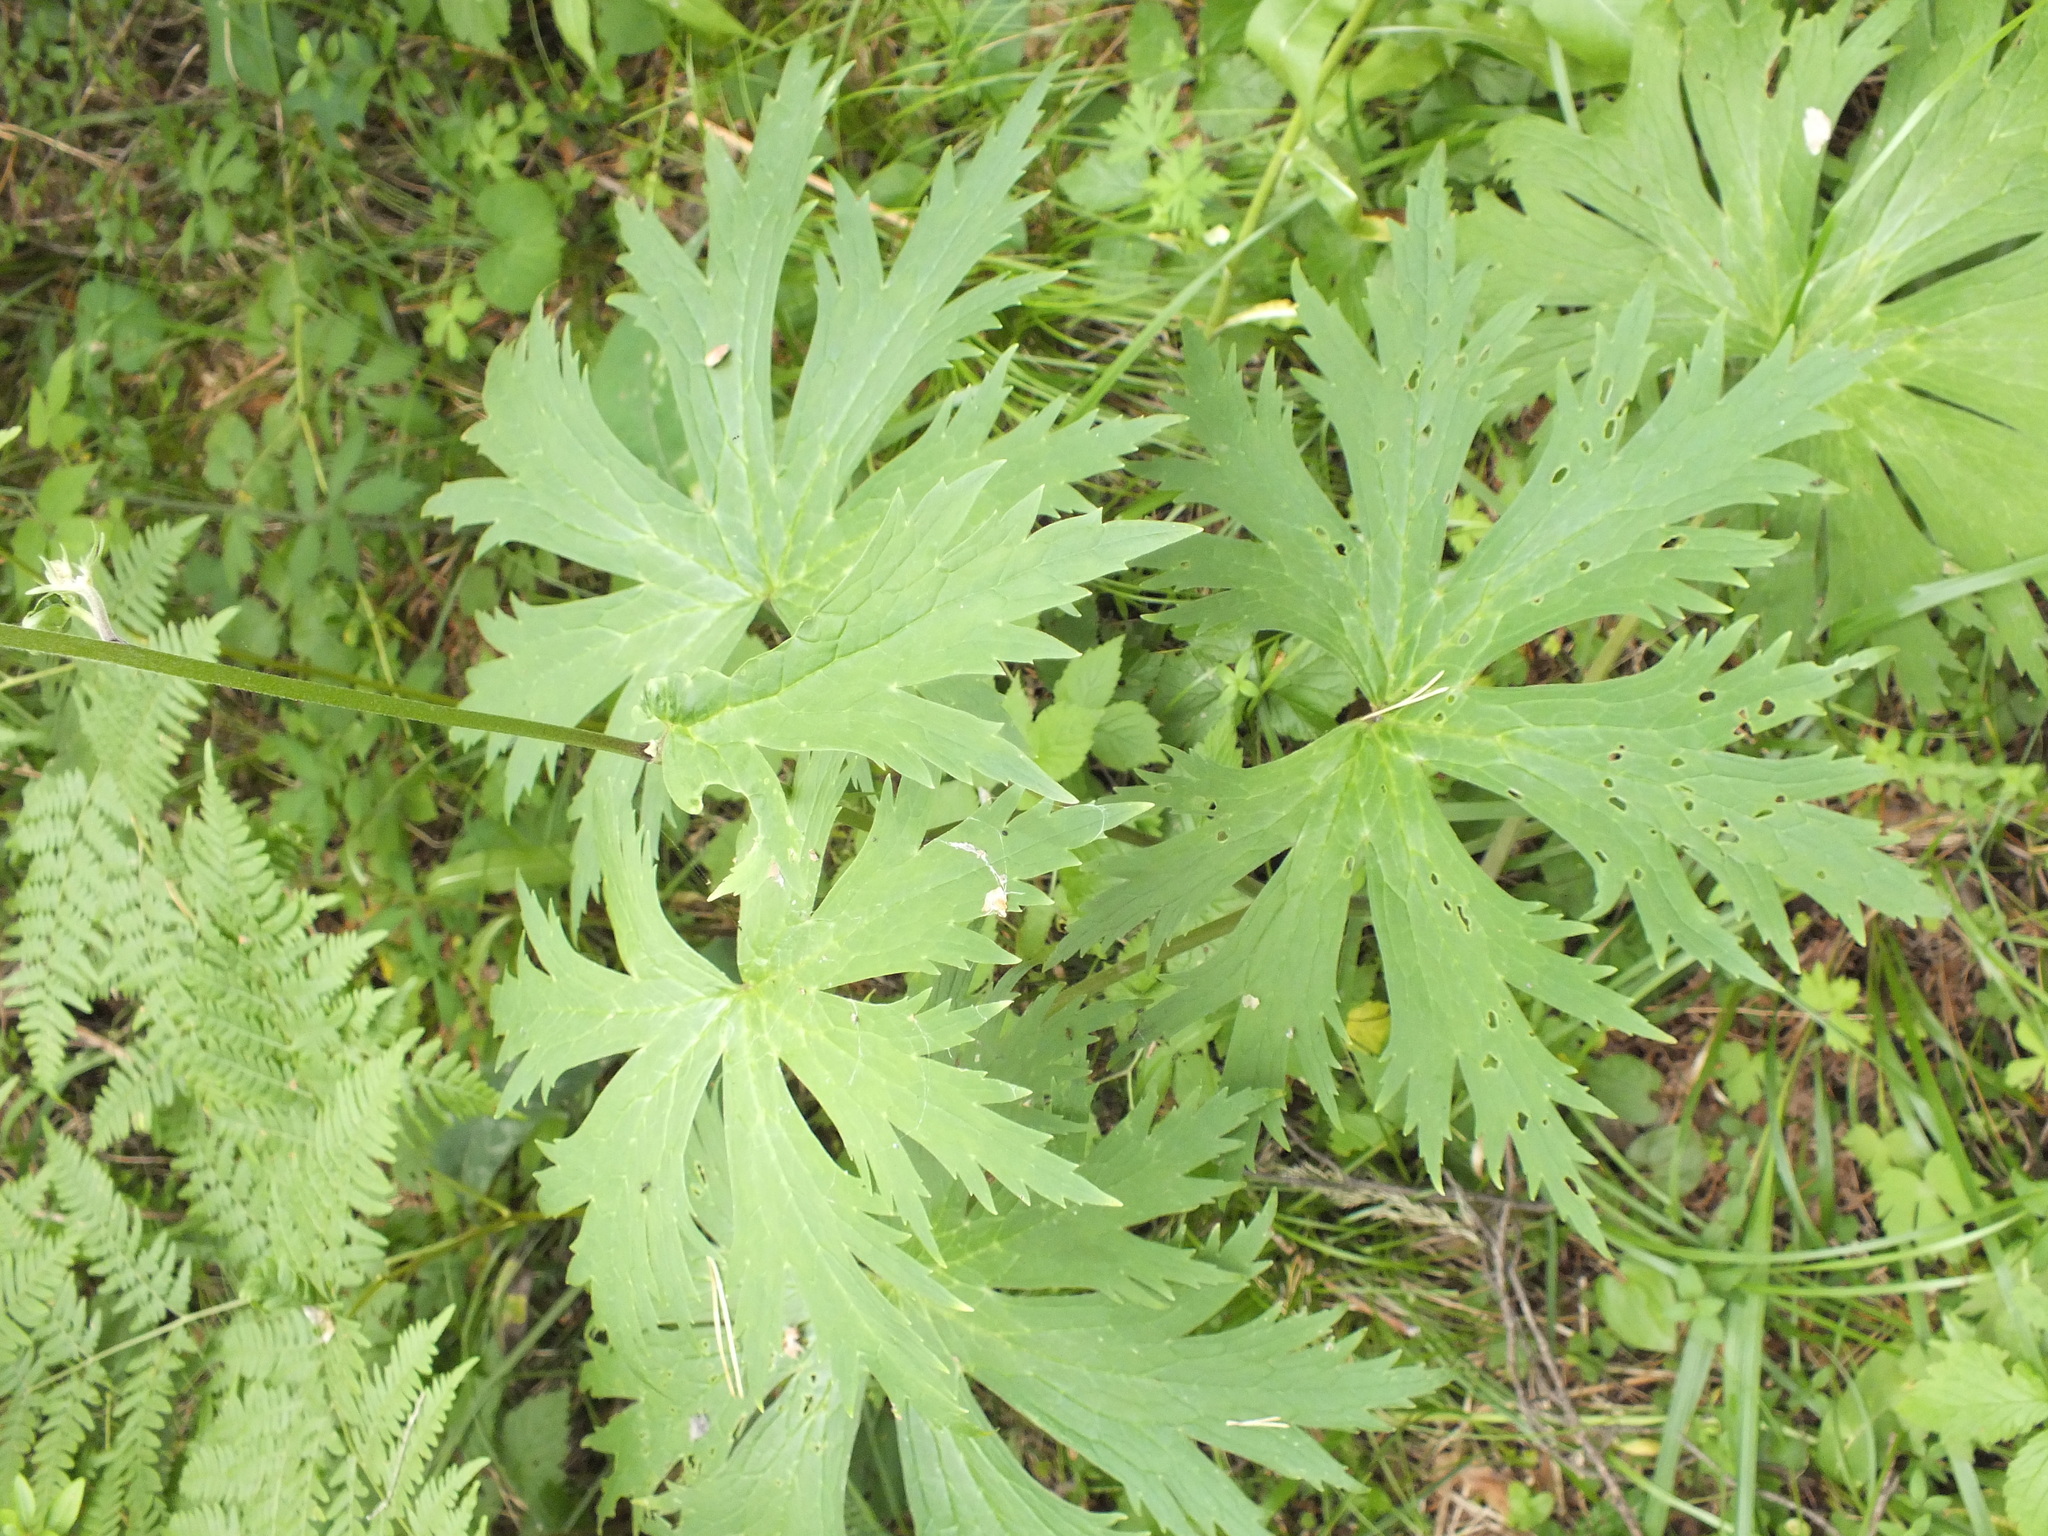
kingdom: Plantae
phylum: Tracheophyta
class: Magnoliopsida
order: Ranunculales
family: Ranunculaceae
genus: Aconitum
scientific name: Aconitum septentrionale
